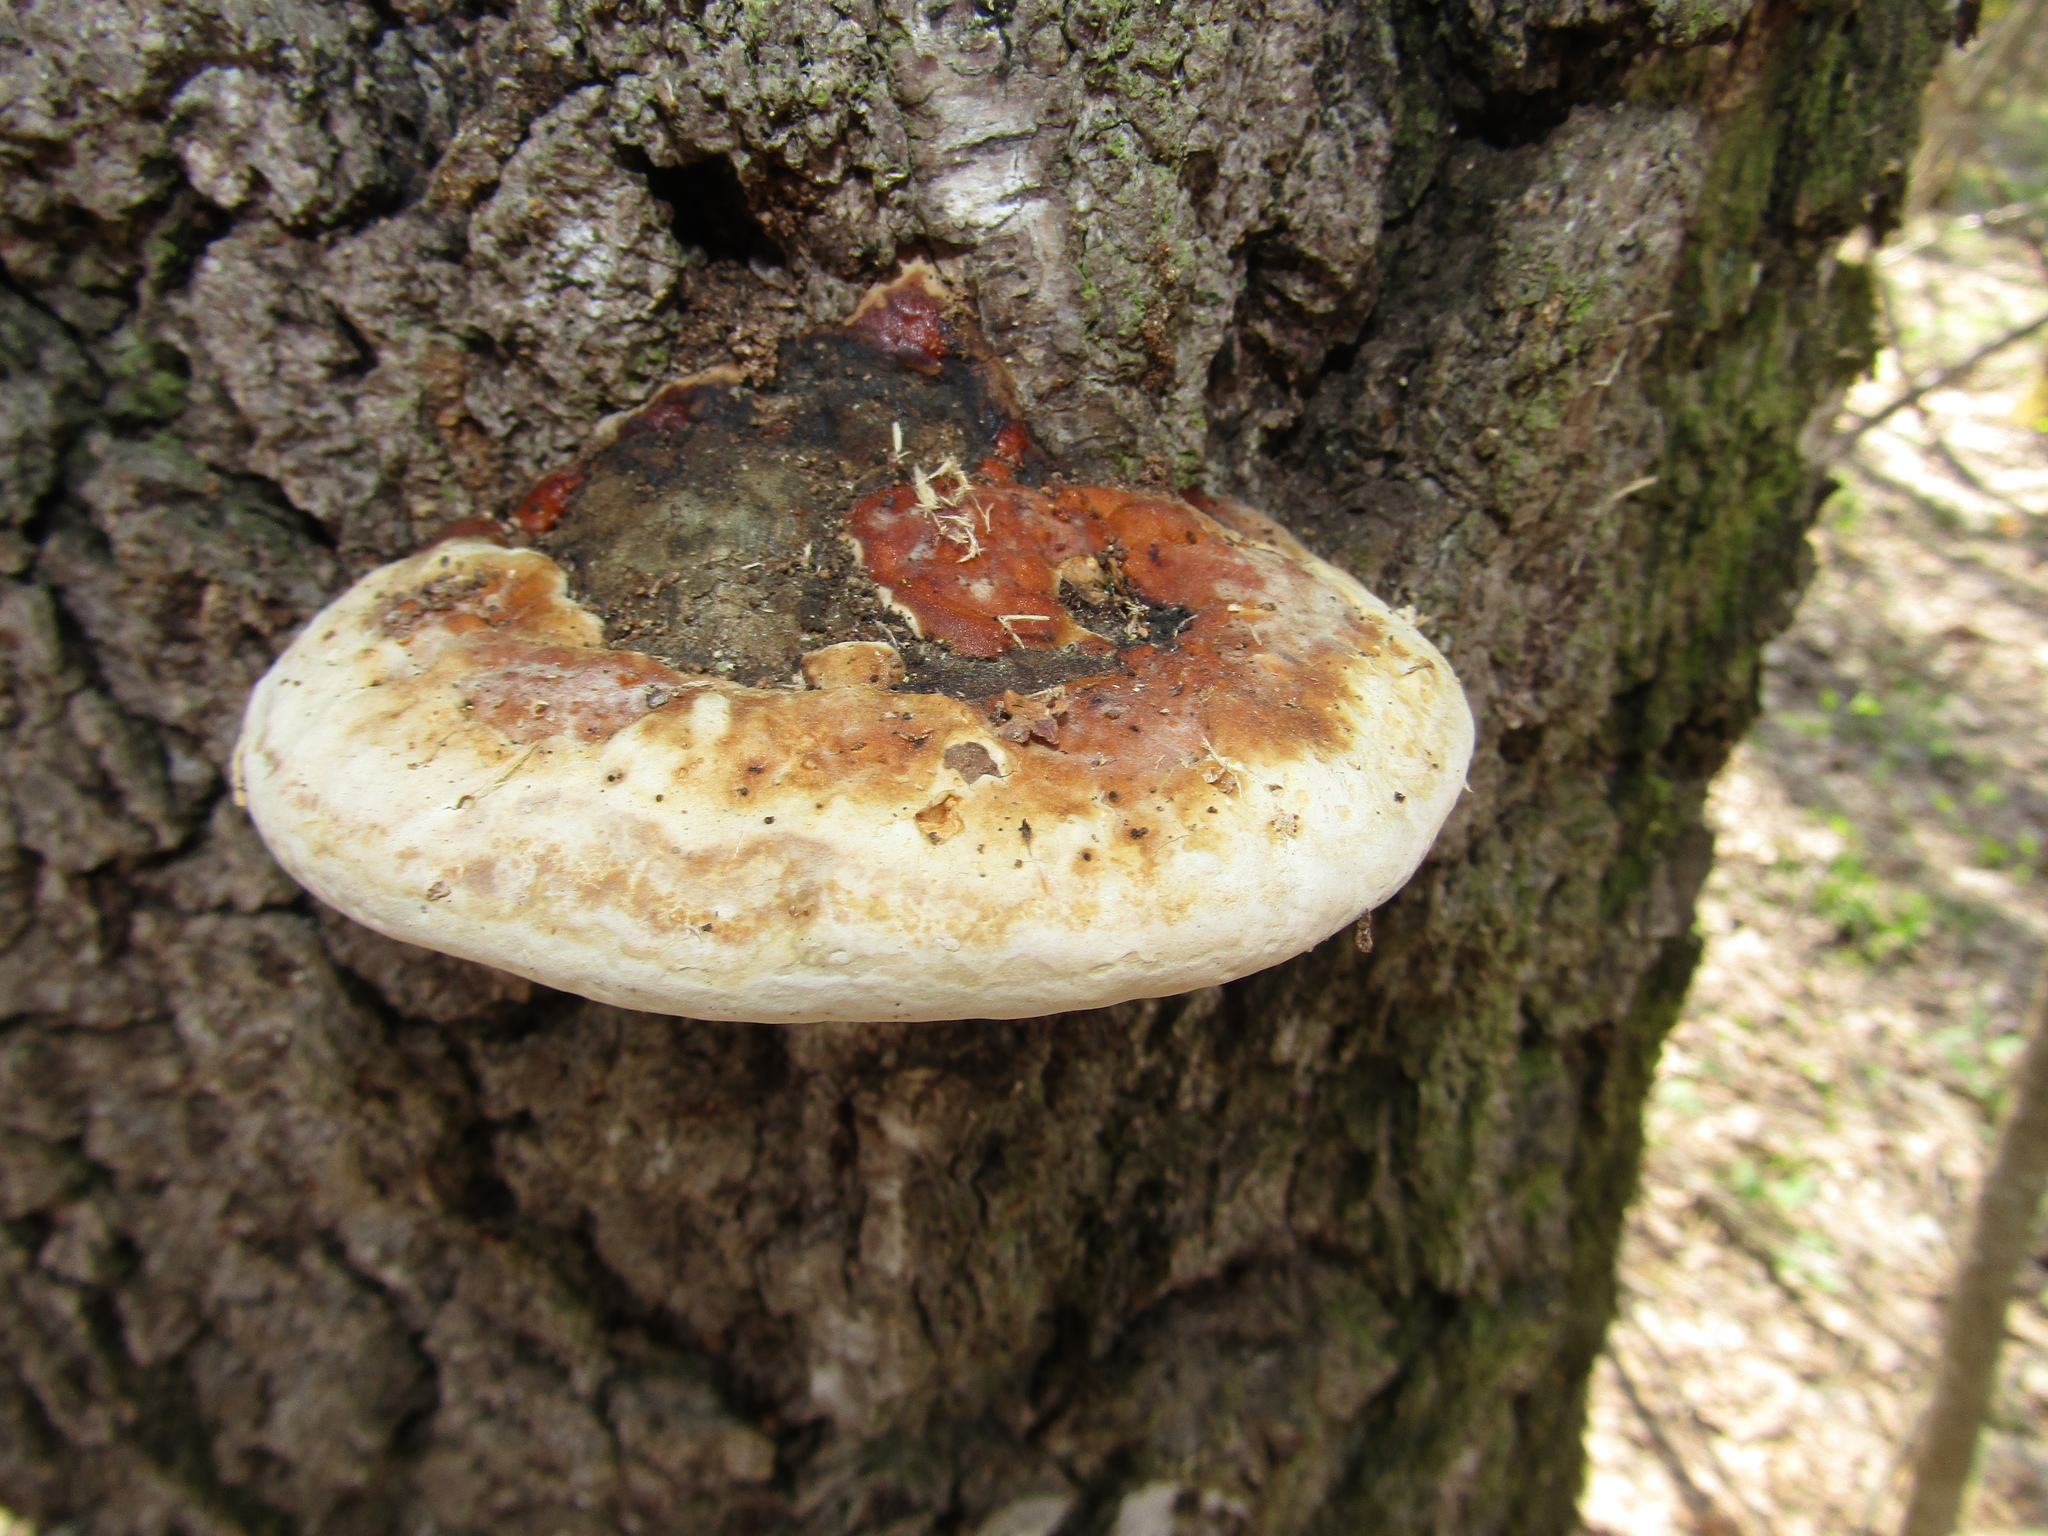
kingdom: Fungi
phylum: Basidiomycota
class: Agaricomycetes
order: Polyporales
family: Fomitopsidaceae
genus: Fomitopsis
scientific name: Fomitopsis pinicola
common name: Red-belted bracket
